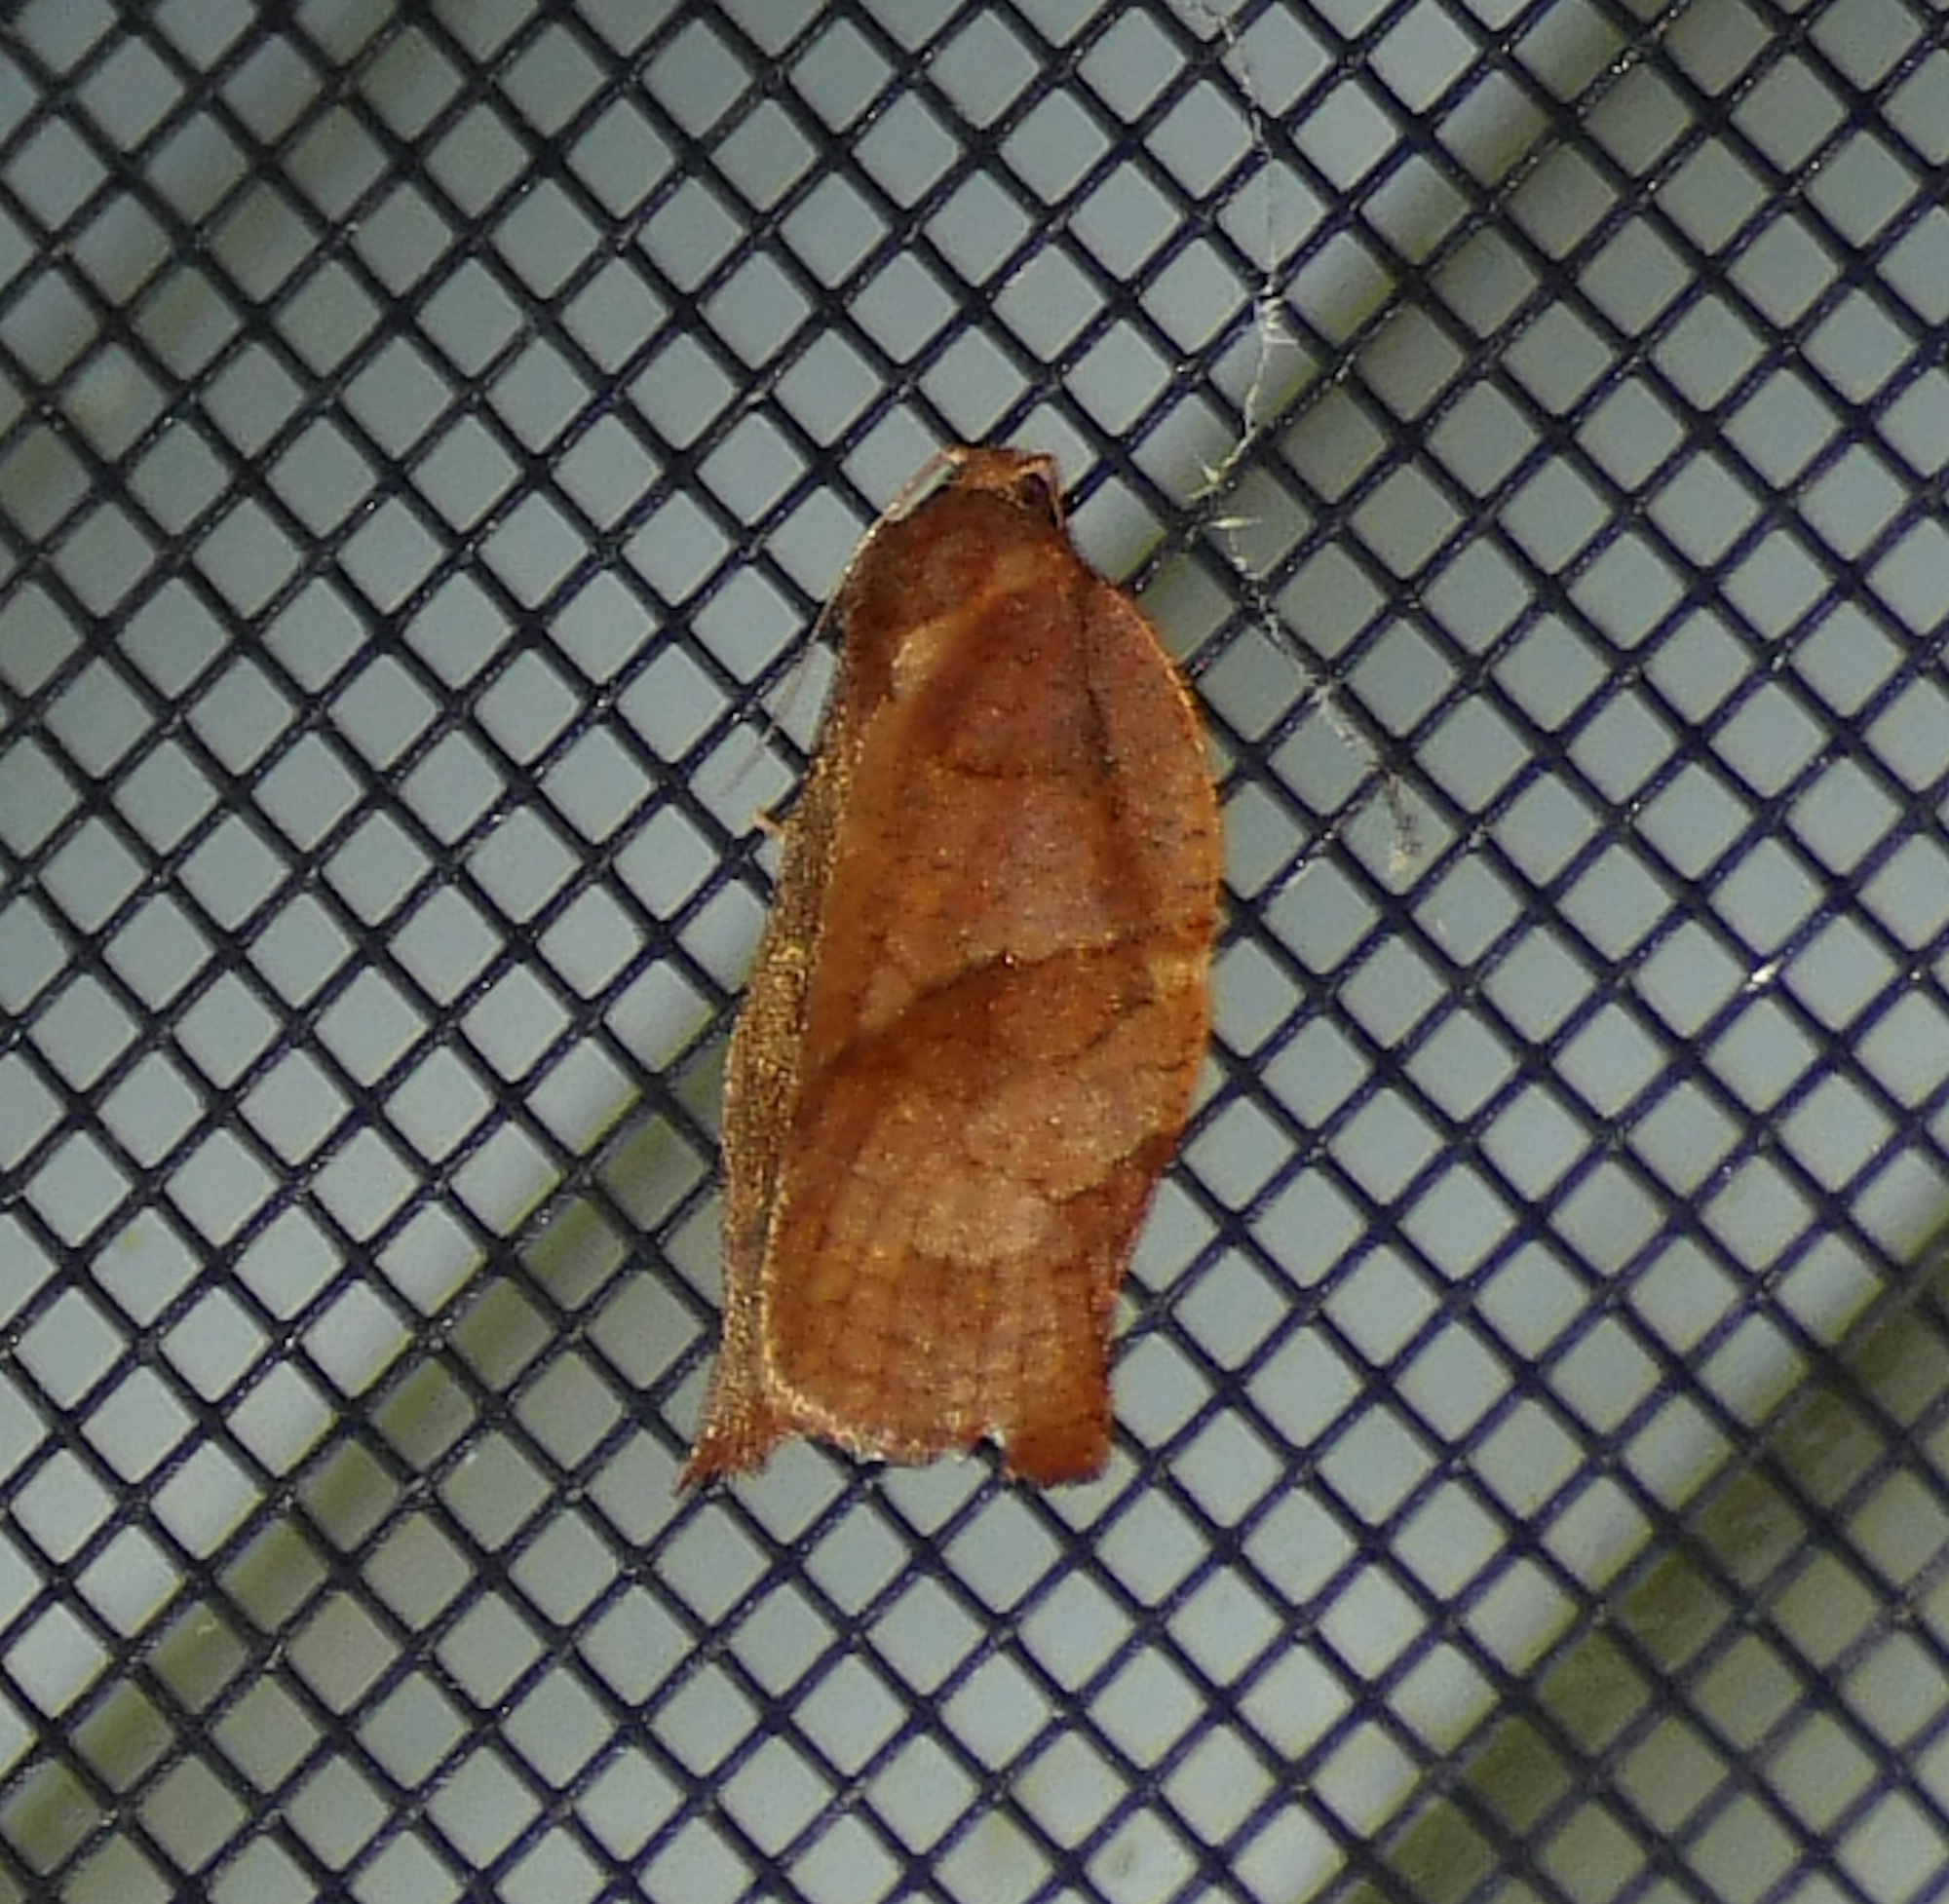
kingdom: Animalia
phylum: Arthropoda
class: Insecta
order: Lepidoptera
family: Tortricidae
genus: Choristoneura
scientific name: Choristoneura rosaceana
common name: Oblique-banded leafroller moth
